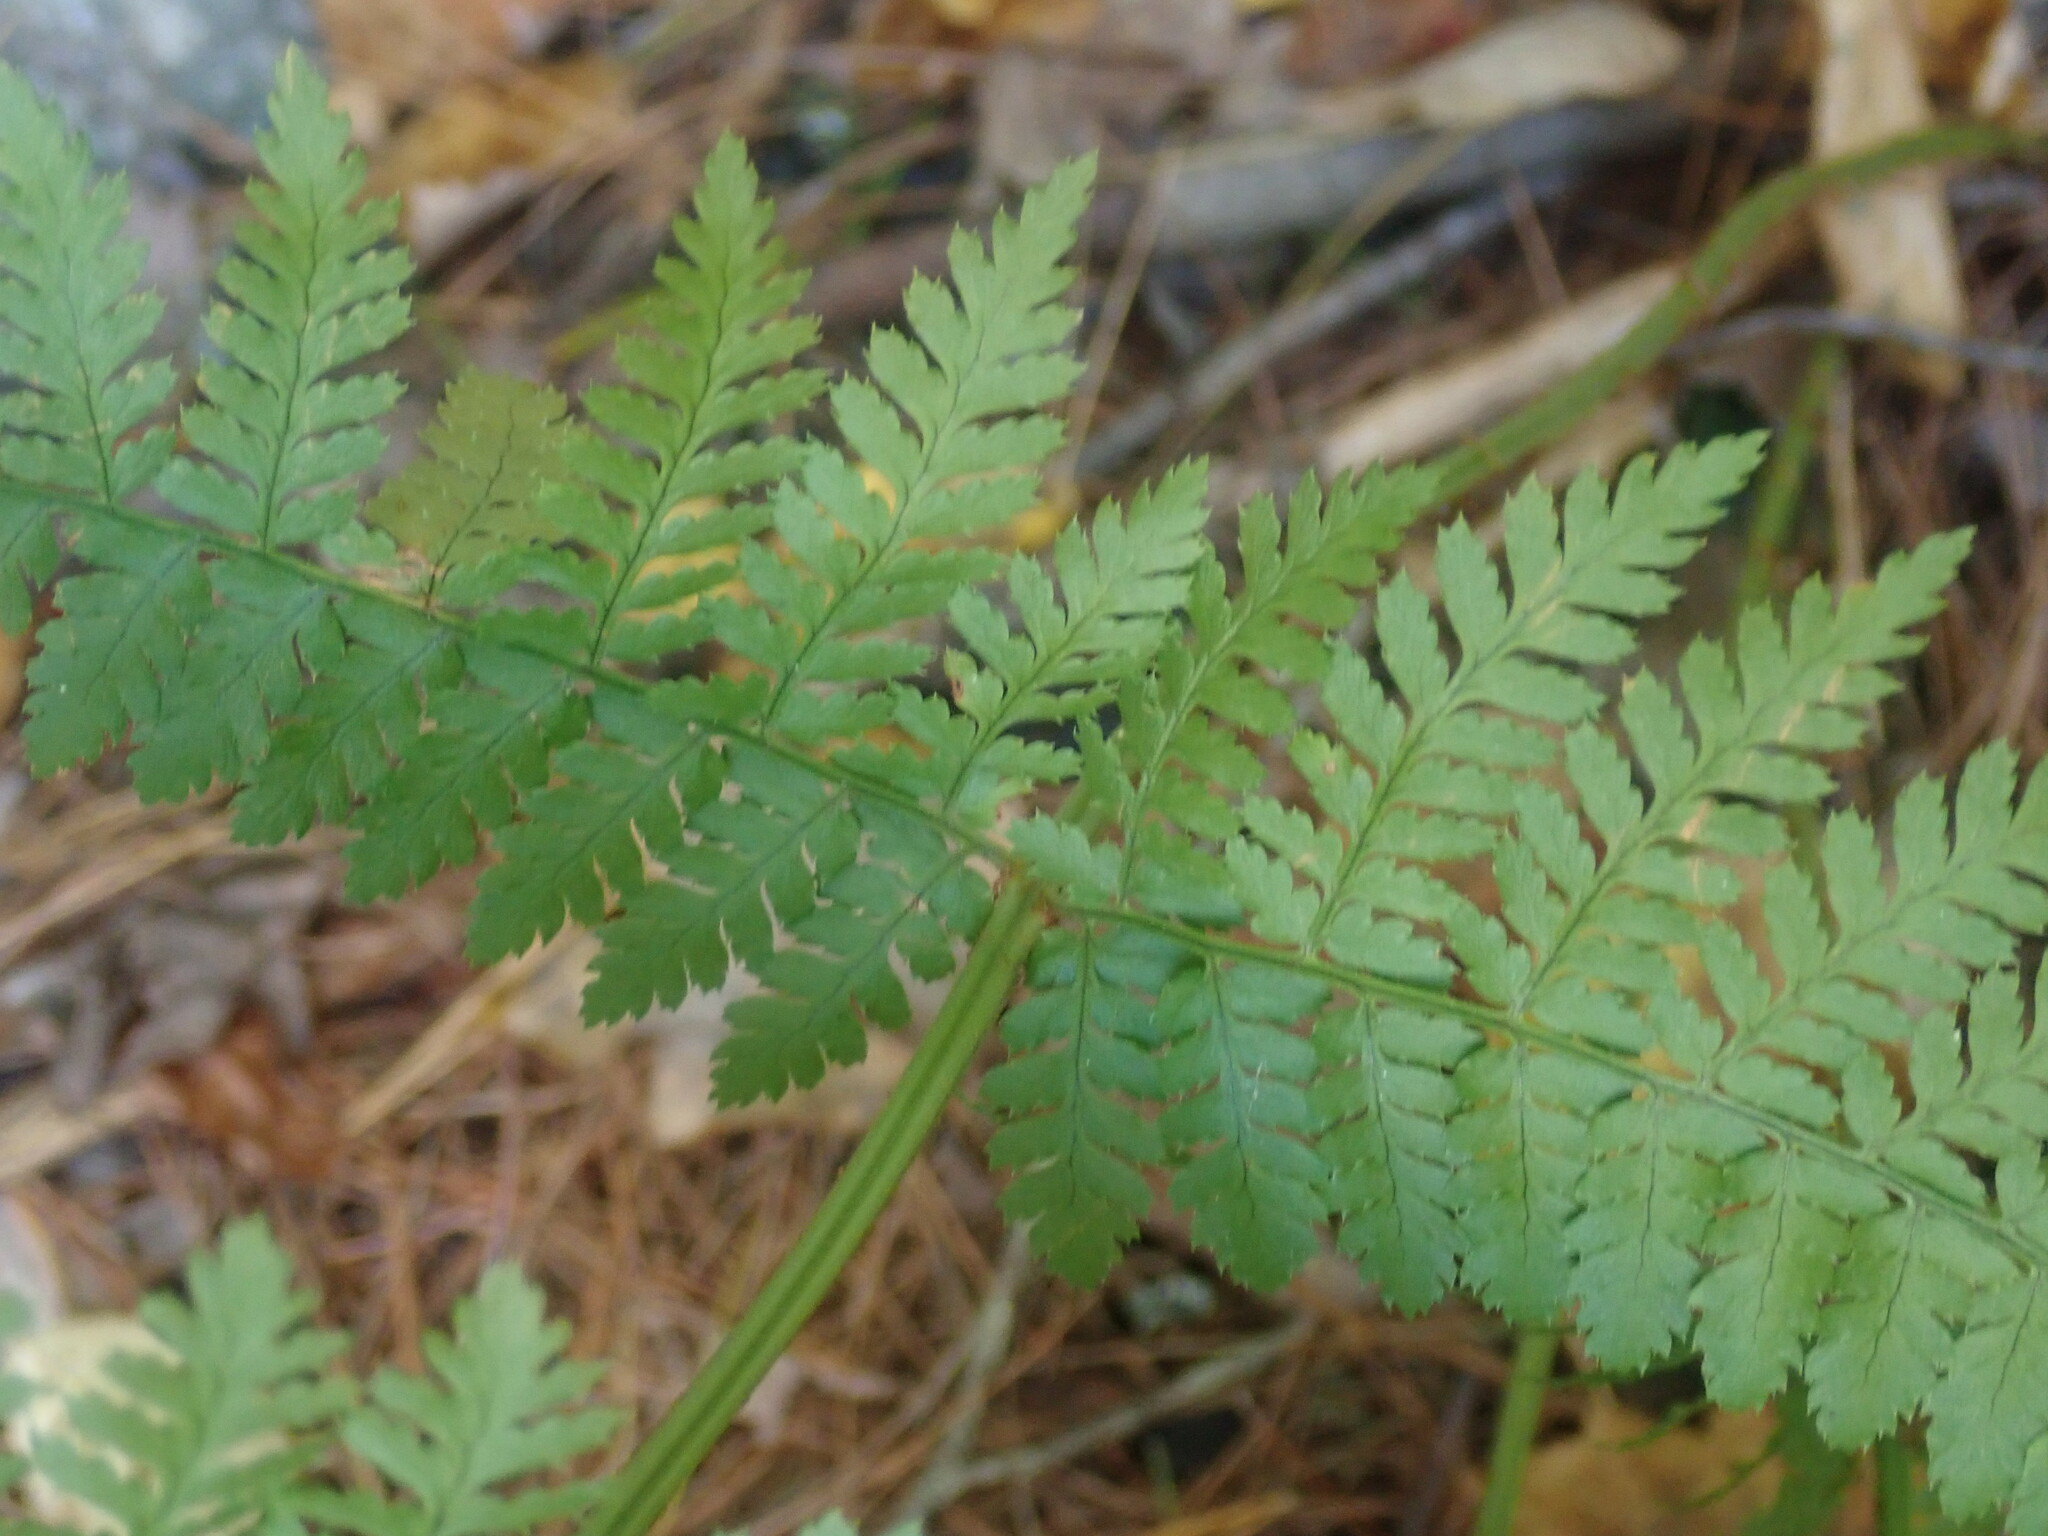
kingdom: Plantae
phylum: Tracheophyta
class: Polypodiopsida
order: Polypodiales
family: Dryopteridaceae
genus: Dryopteris
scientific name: Dryopteris intermedia
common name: Evergreen wood fern
